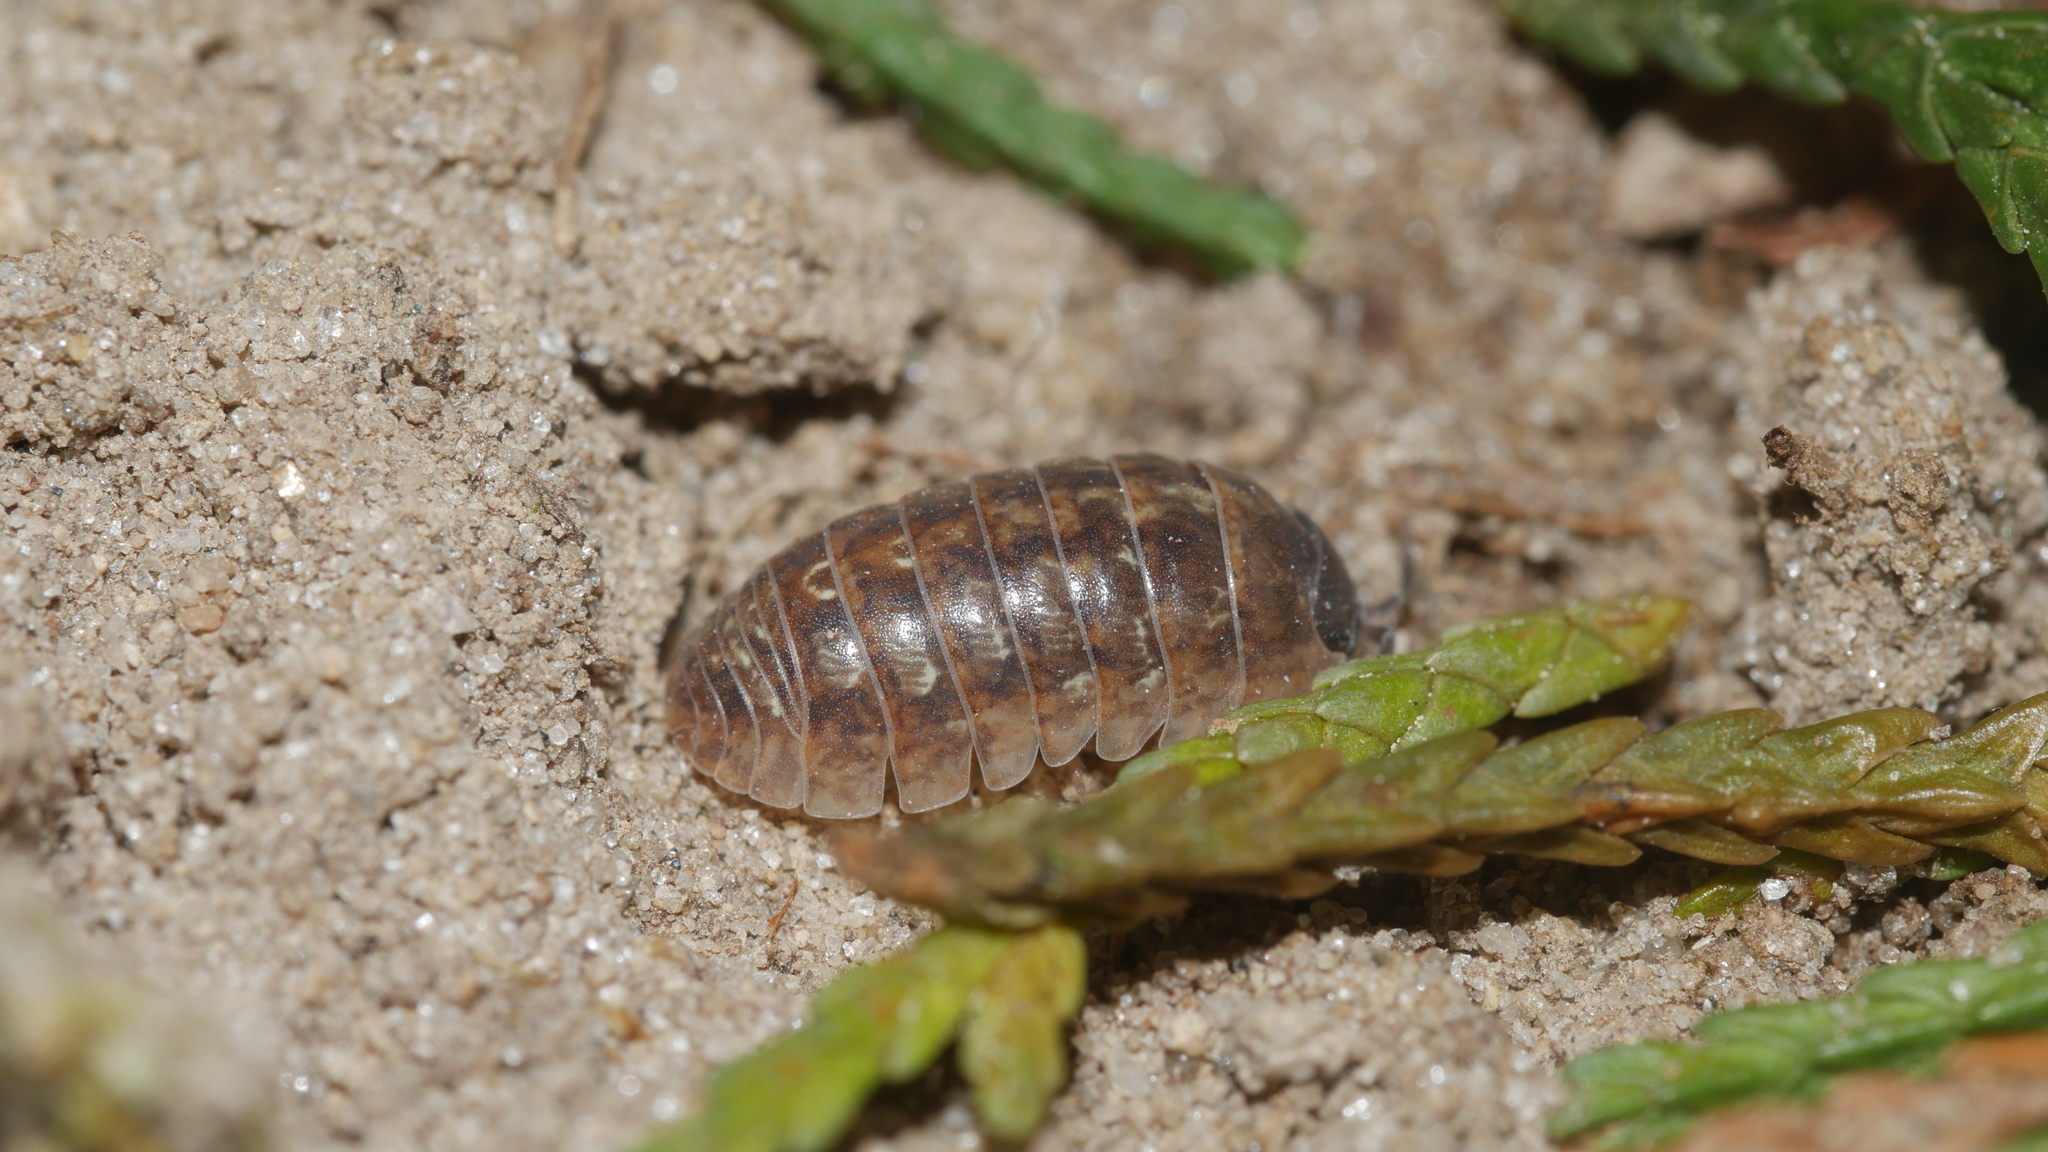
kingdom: Animalia
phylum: Arthropoda
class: Malacostraca
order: Isopoda
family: Armadillidiidae
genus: Armadillidium
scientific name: Armadillidium vulgare
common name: Common pill woodlouse
